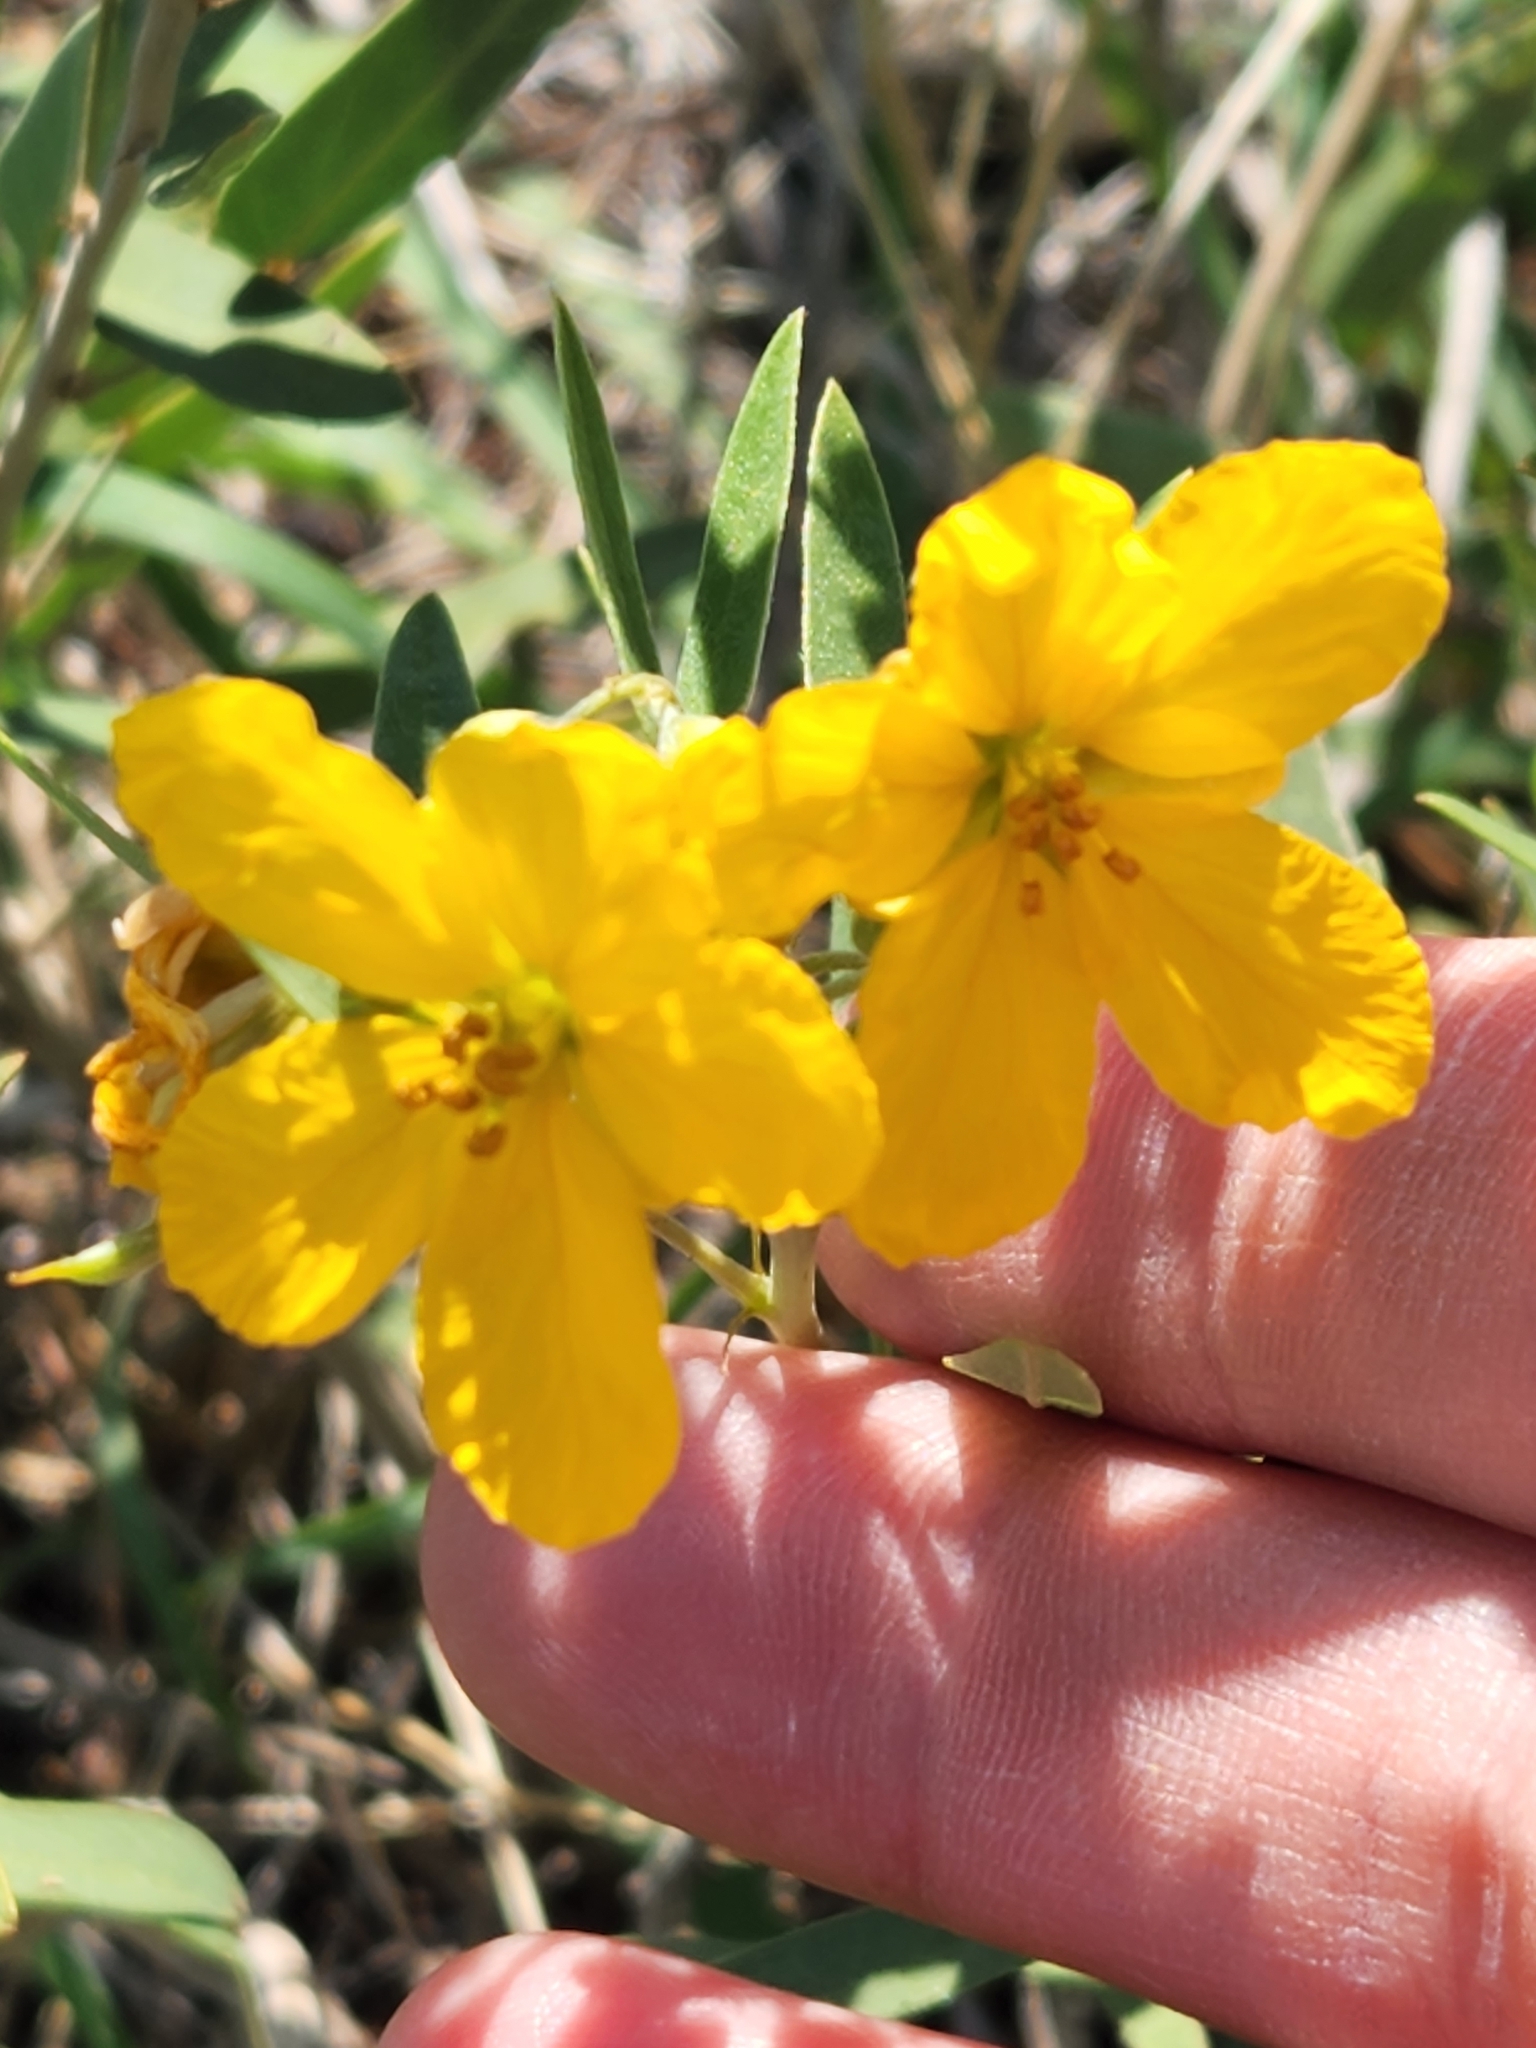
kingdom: Plantae
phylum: Tracheophyta
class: Magnoliopsida
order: Fabales
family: Fabaceae
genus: Senna
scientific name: Senna roemeriana
